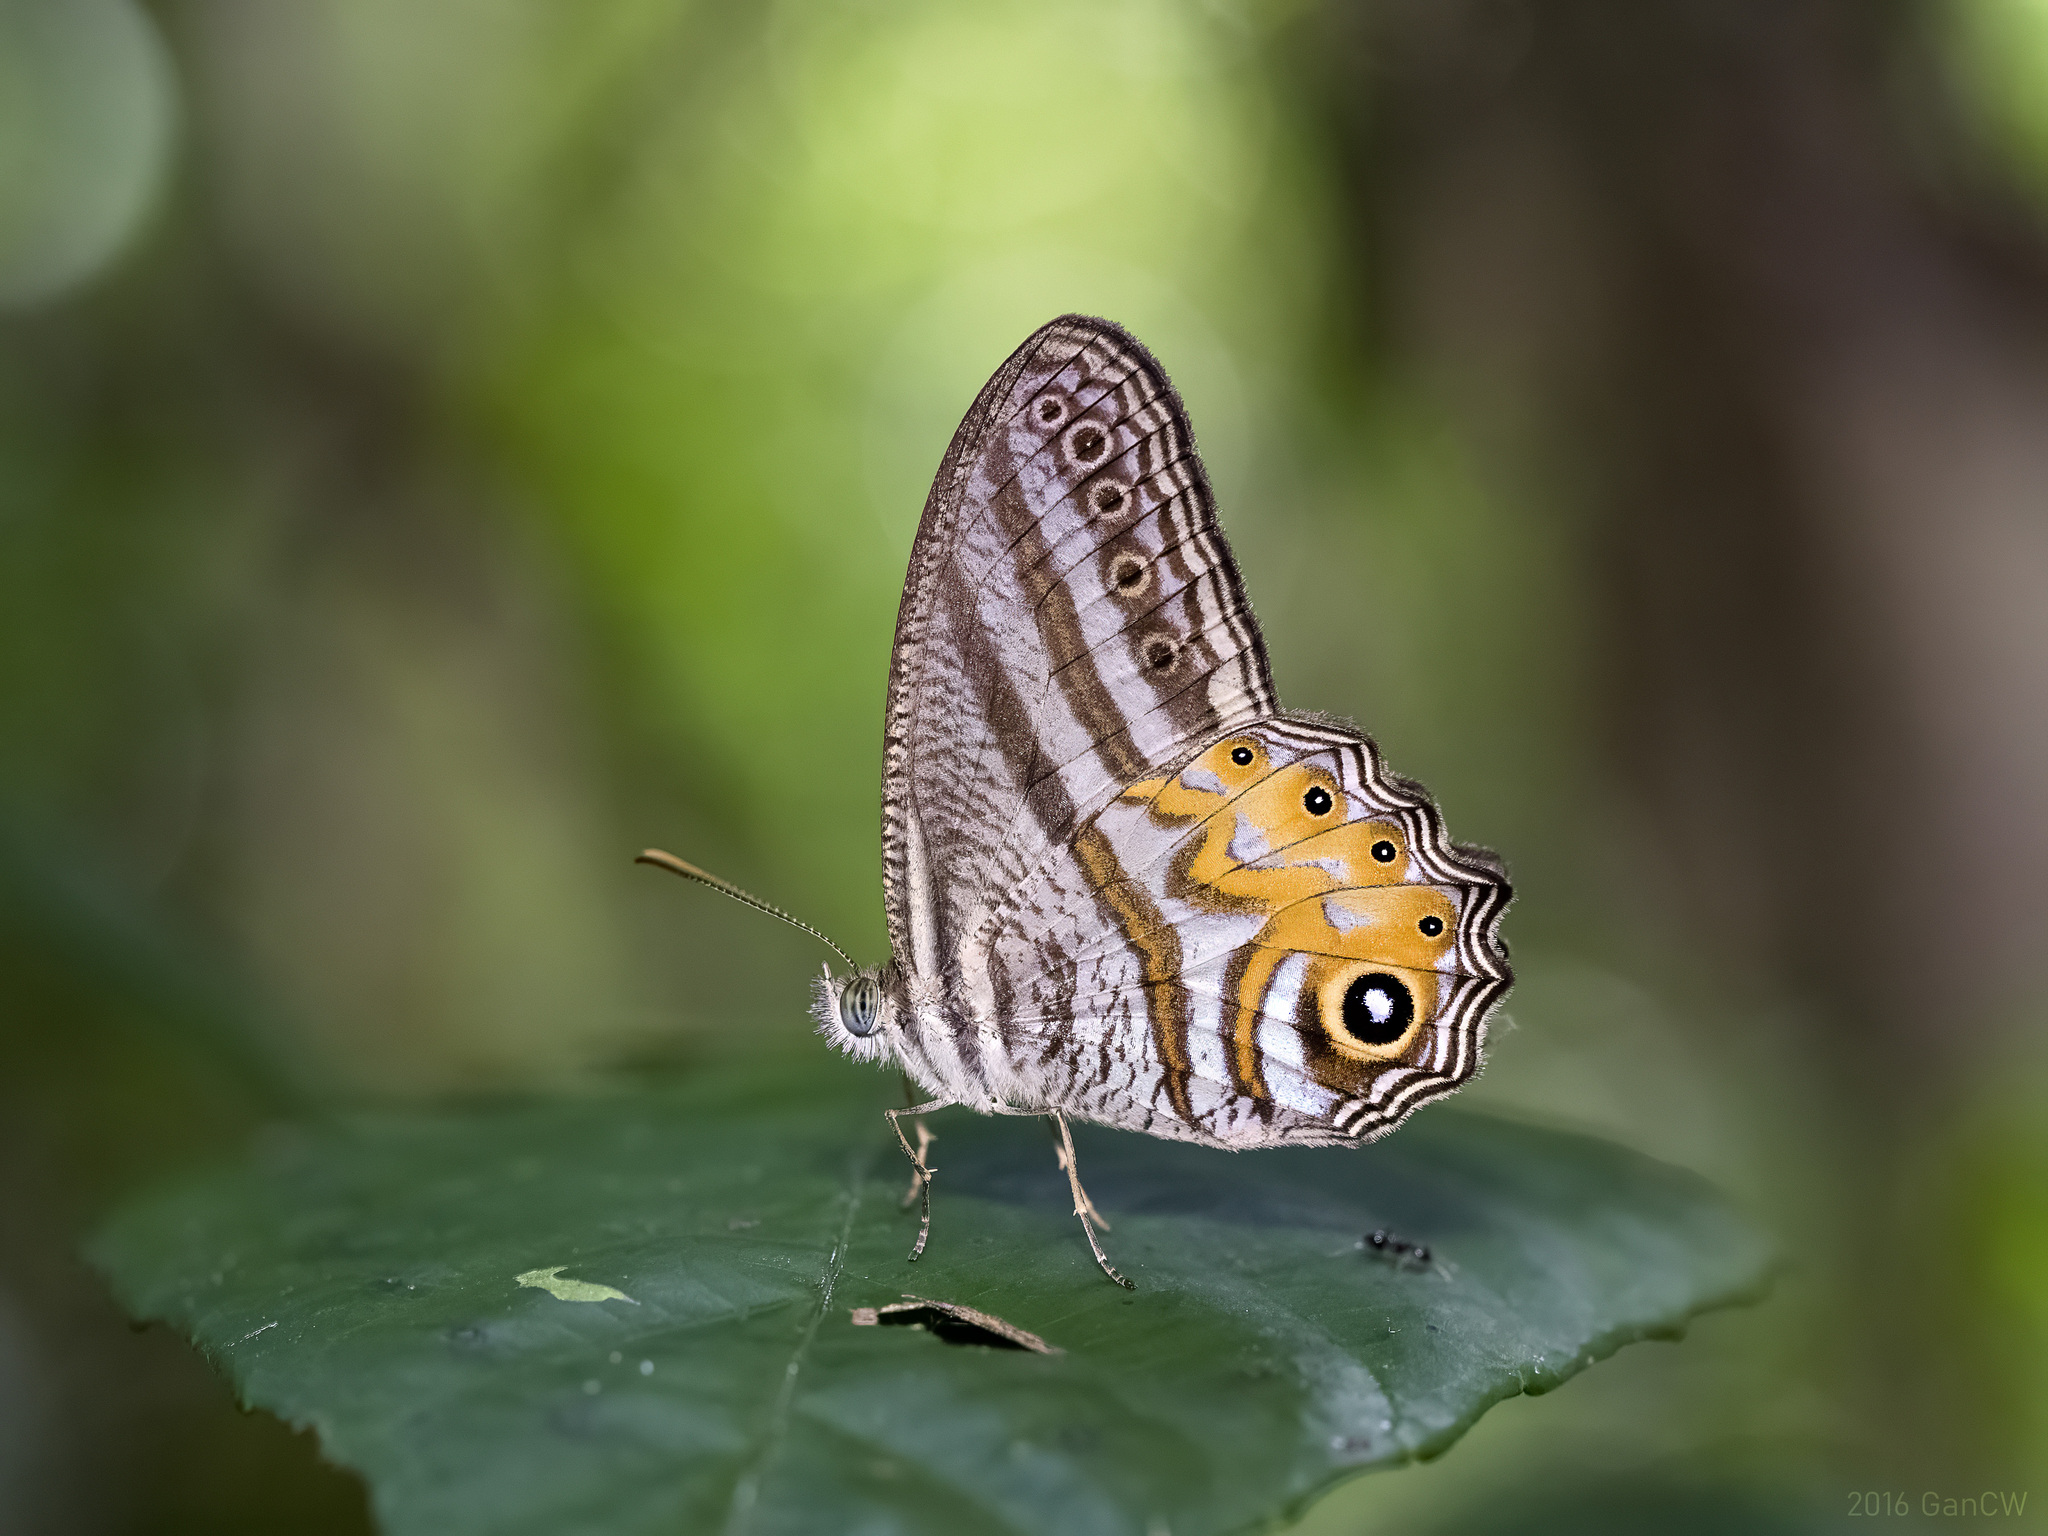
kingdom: Animalia
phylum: Arthropoda
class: Insecta
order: Lepidoptera
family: Nymphalidae
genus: Erites
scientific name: Erites elegans
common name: Elegent cyclops
